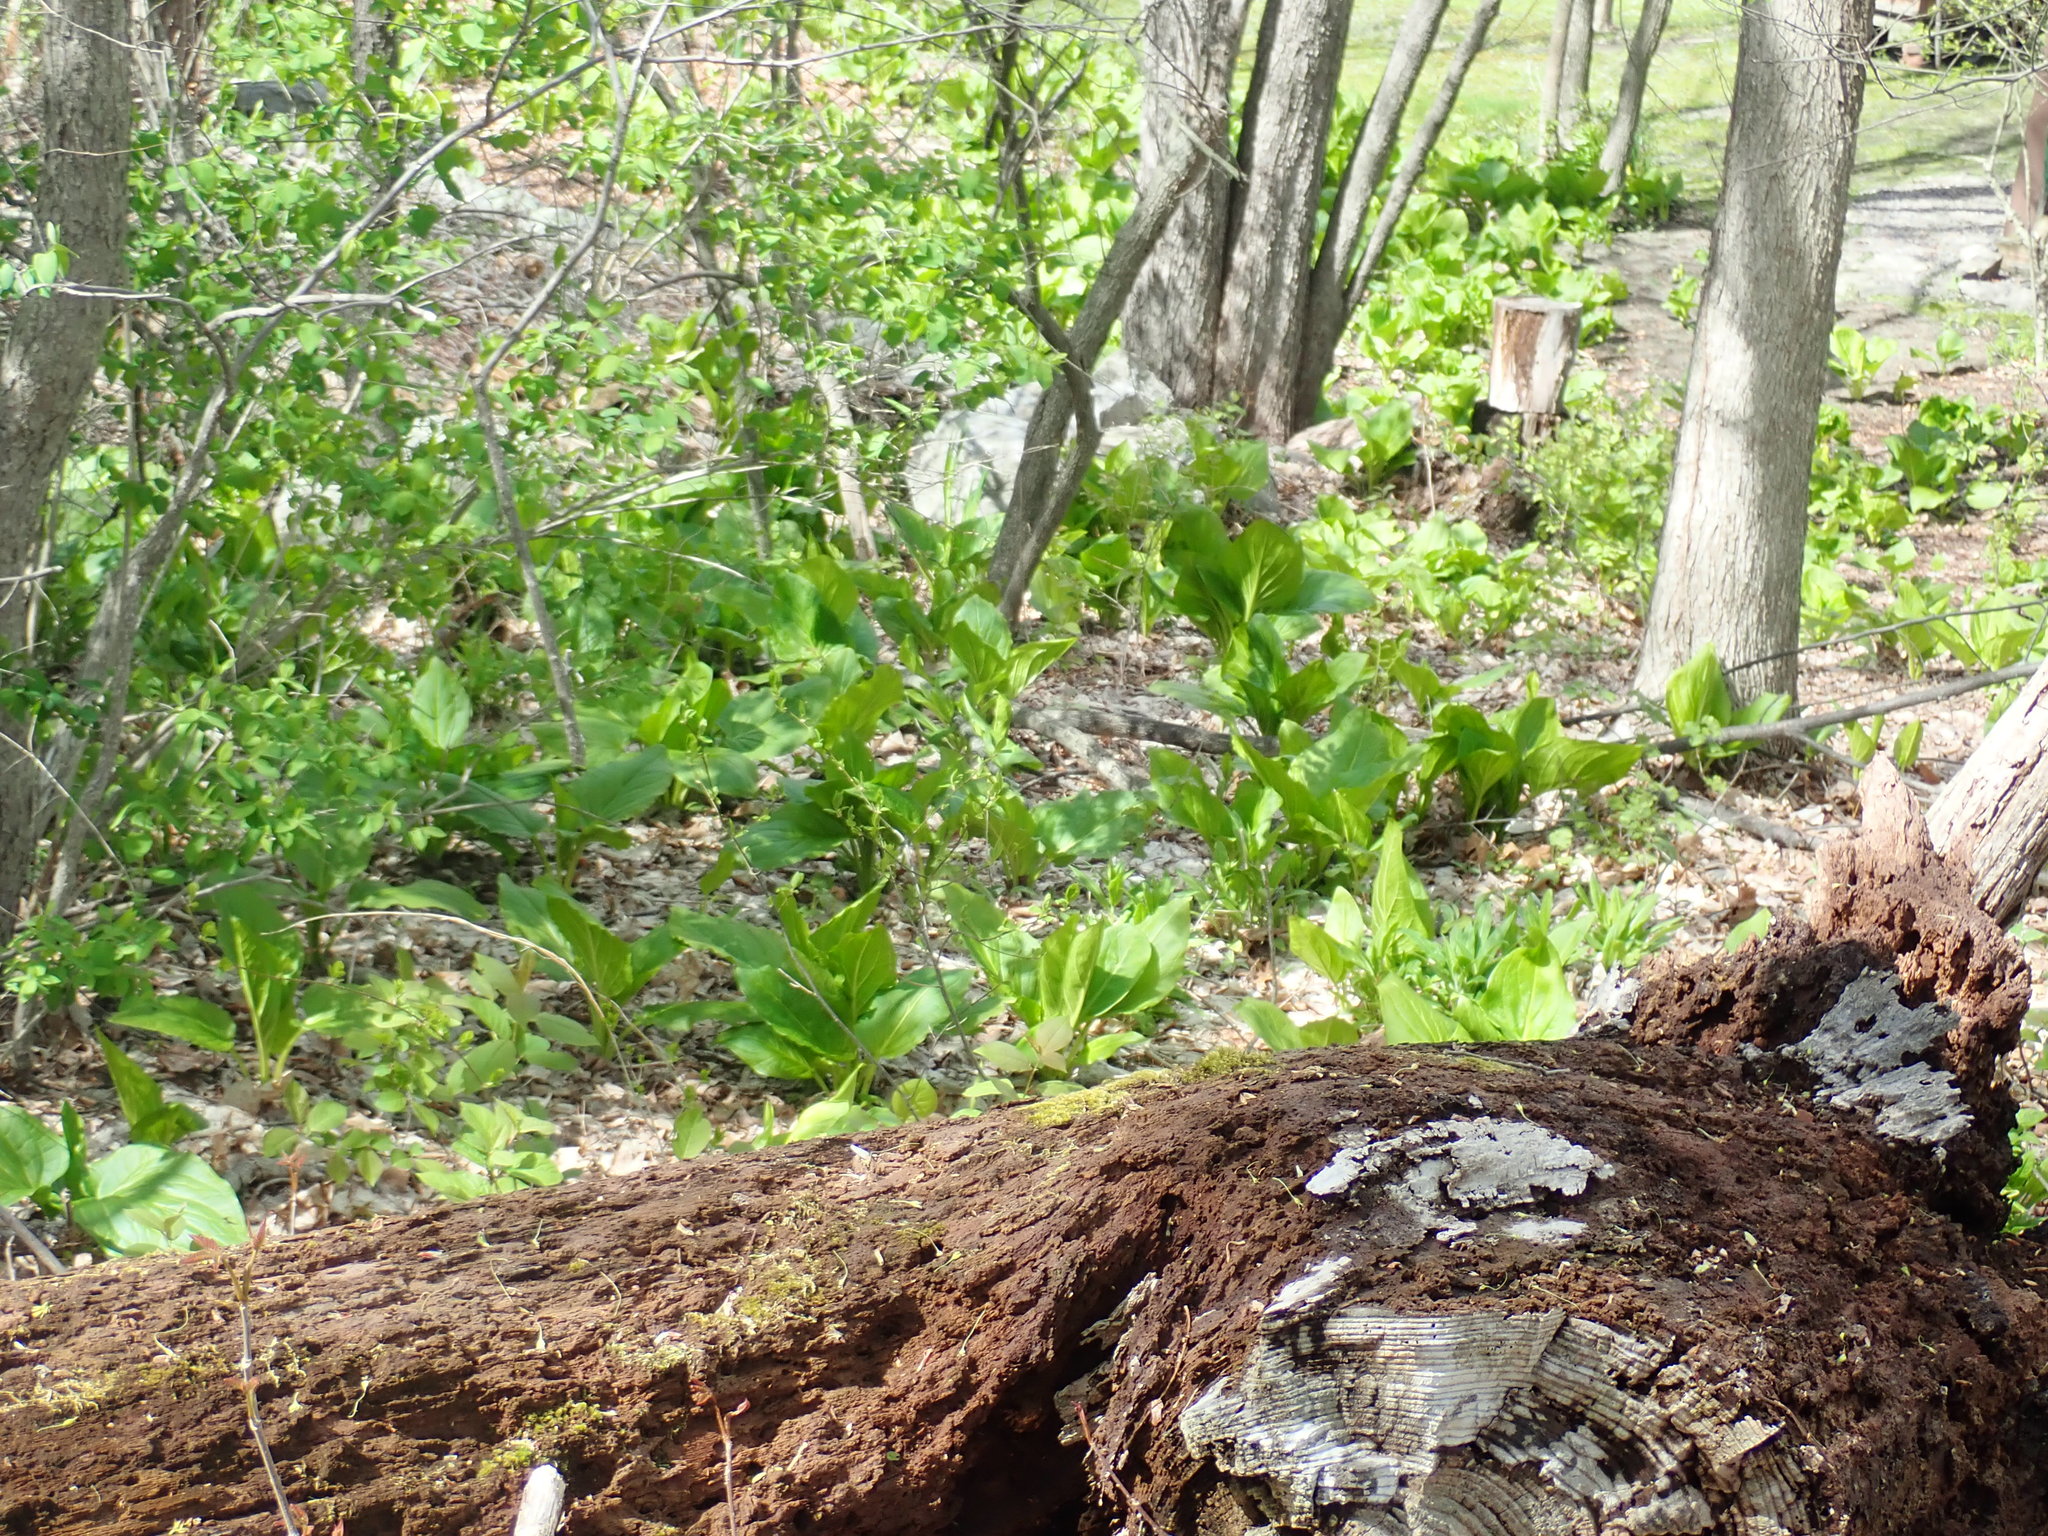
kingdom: Plantae
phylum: Tracheophyta
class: Liliopsida
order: Alismatales
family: Araceae
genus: Symplocarpus
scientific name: Symplocarpus foetidus
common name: Eastern skunk cabbage
